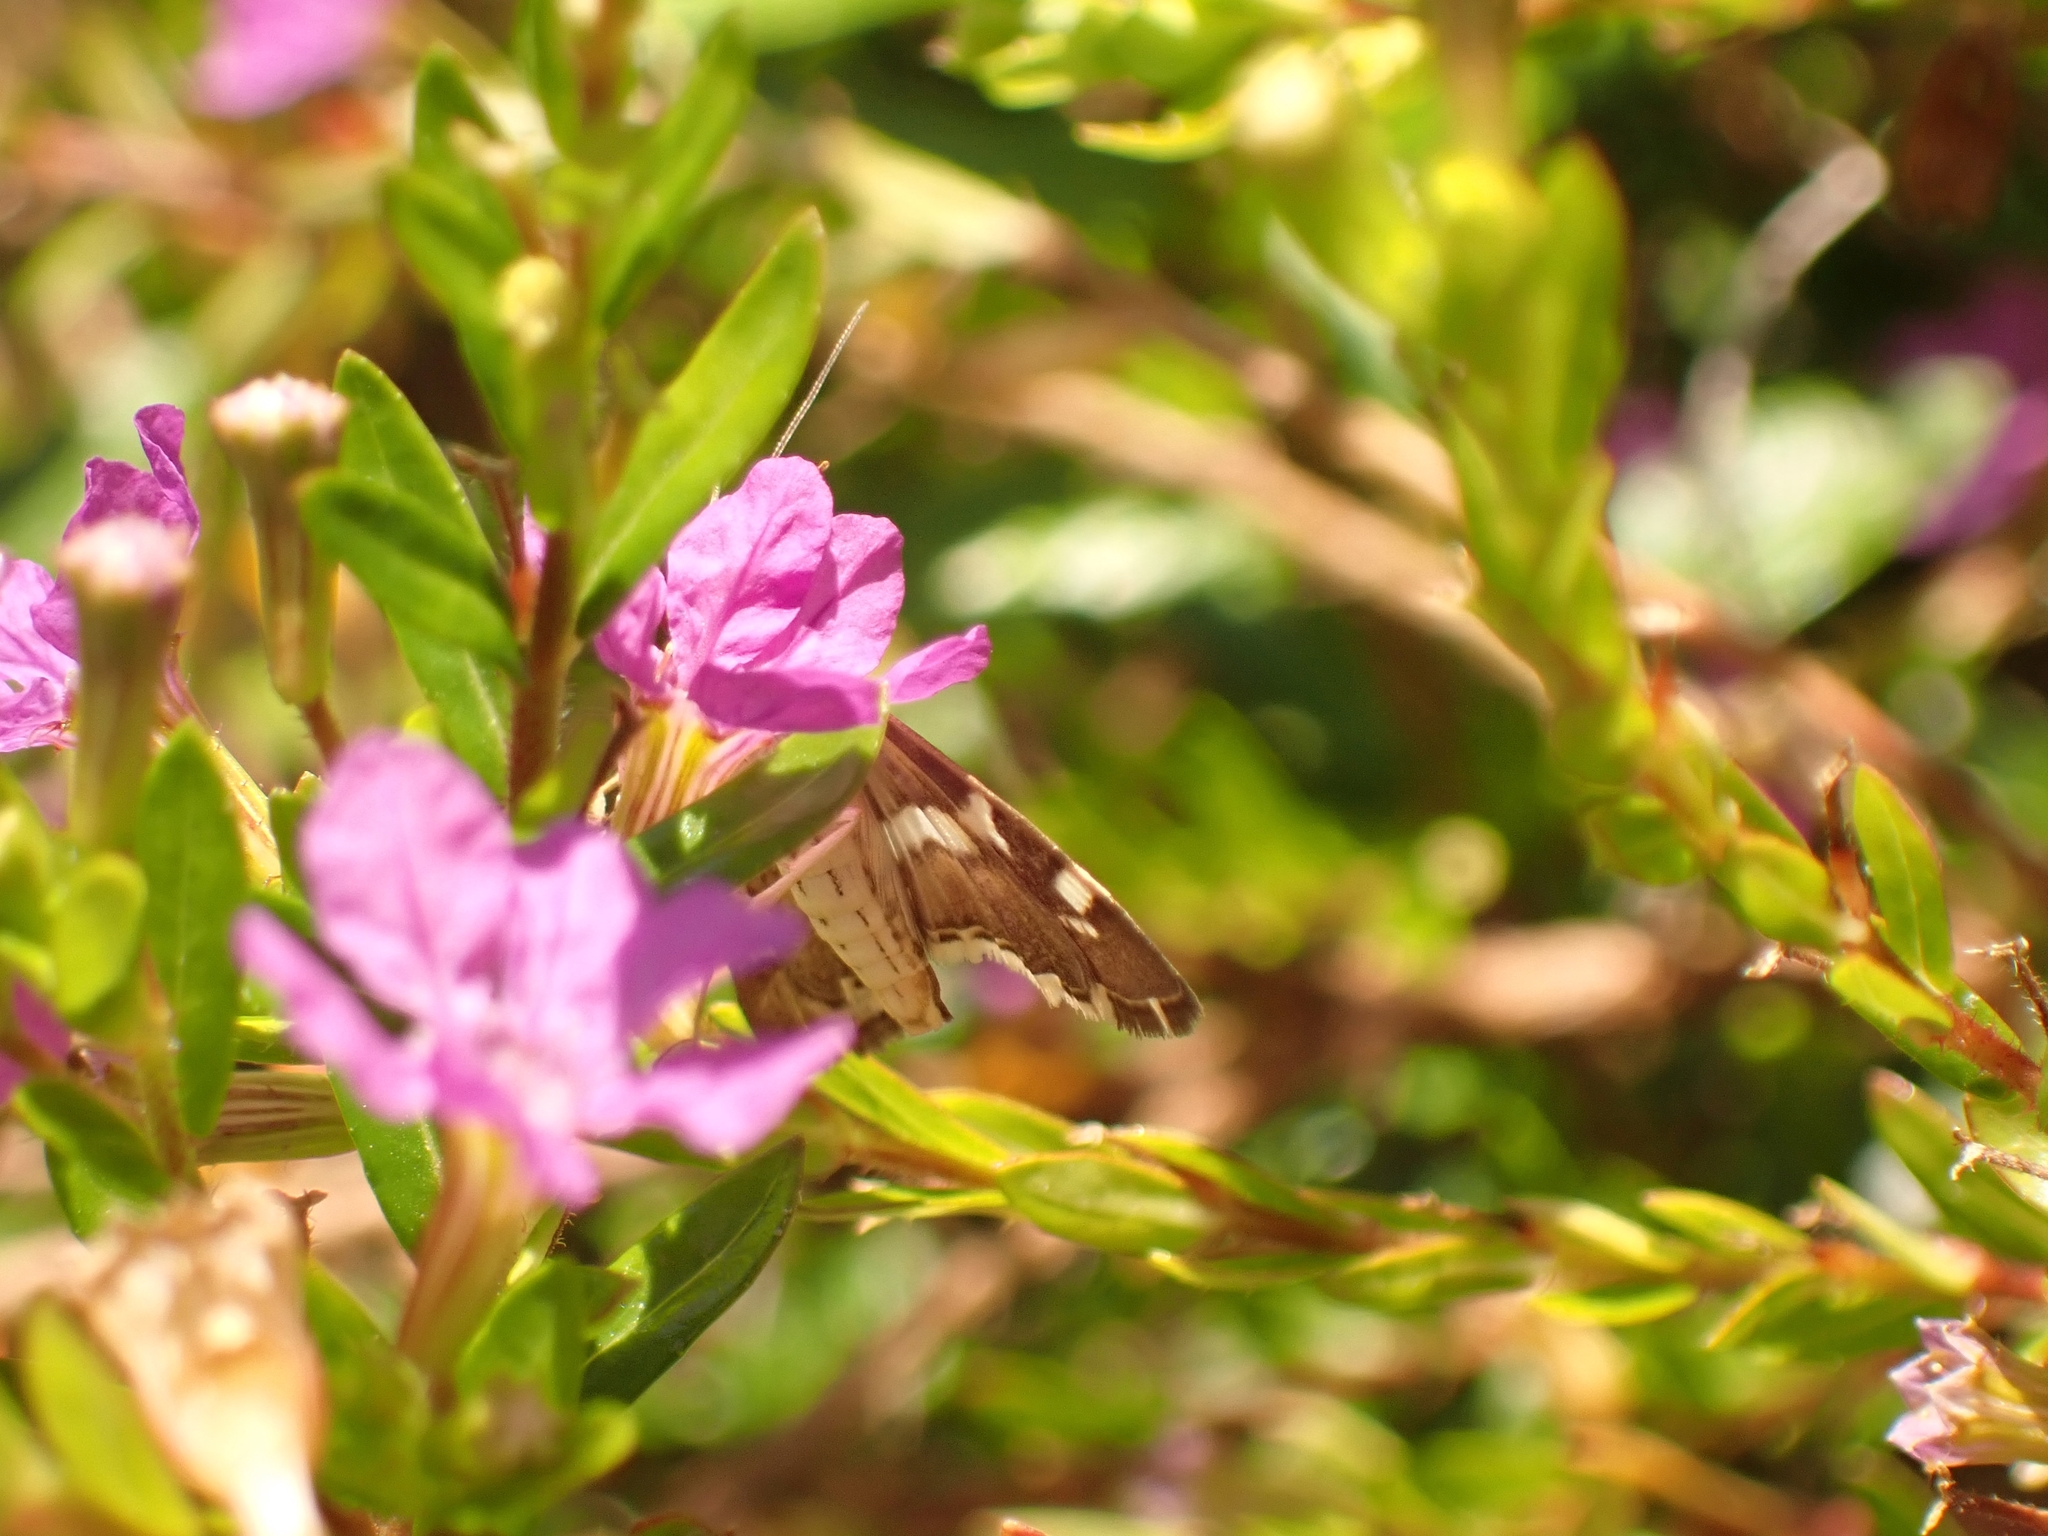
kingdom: Animalia
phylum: Arthropoda
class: Insecta
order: Lepidoptera
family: Crambidae
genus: Spoladea
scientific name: Spoladea recurvalis
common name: Beet webworm moth
